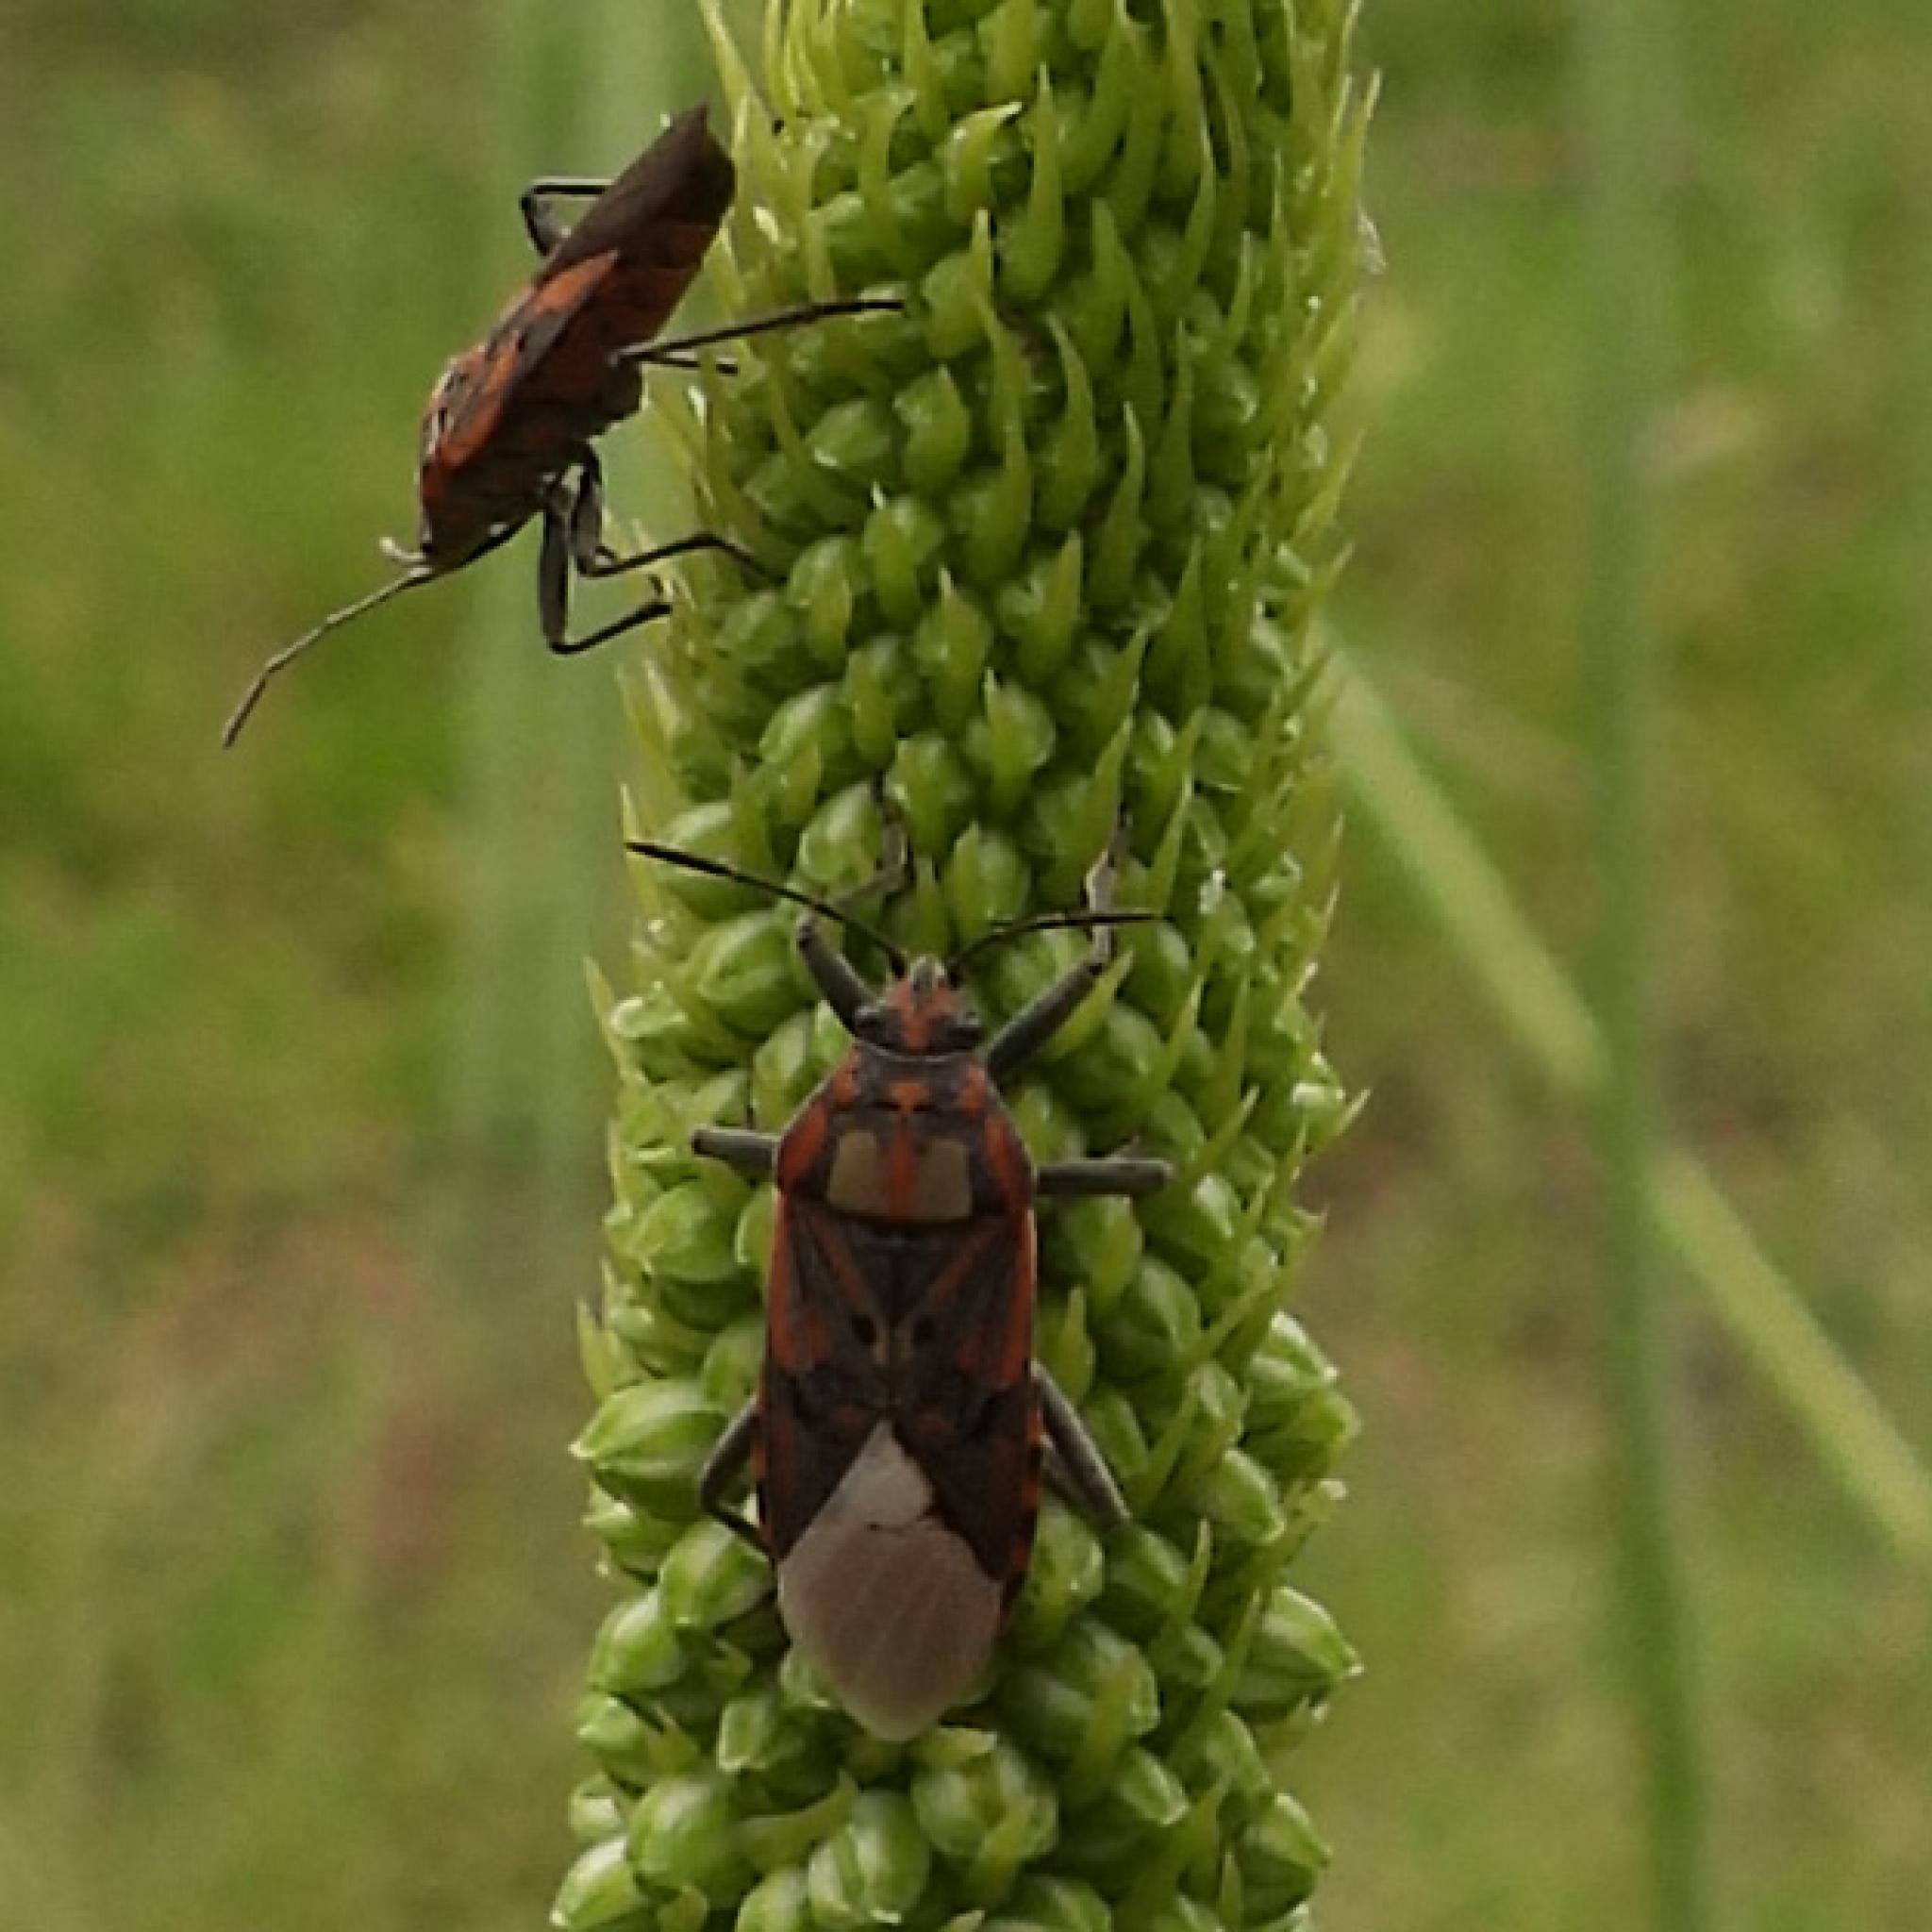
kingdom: Animalia
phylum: Arthropoda
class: Insecta
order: Hemiptera
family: Lygaeidae
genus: Spilostethus
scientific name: Spilostethus pandurus
